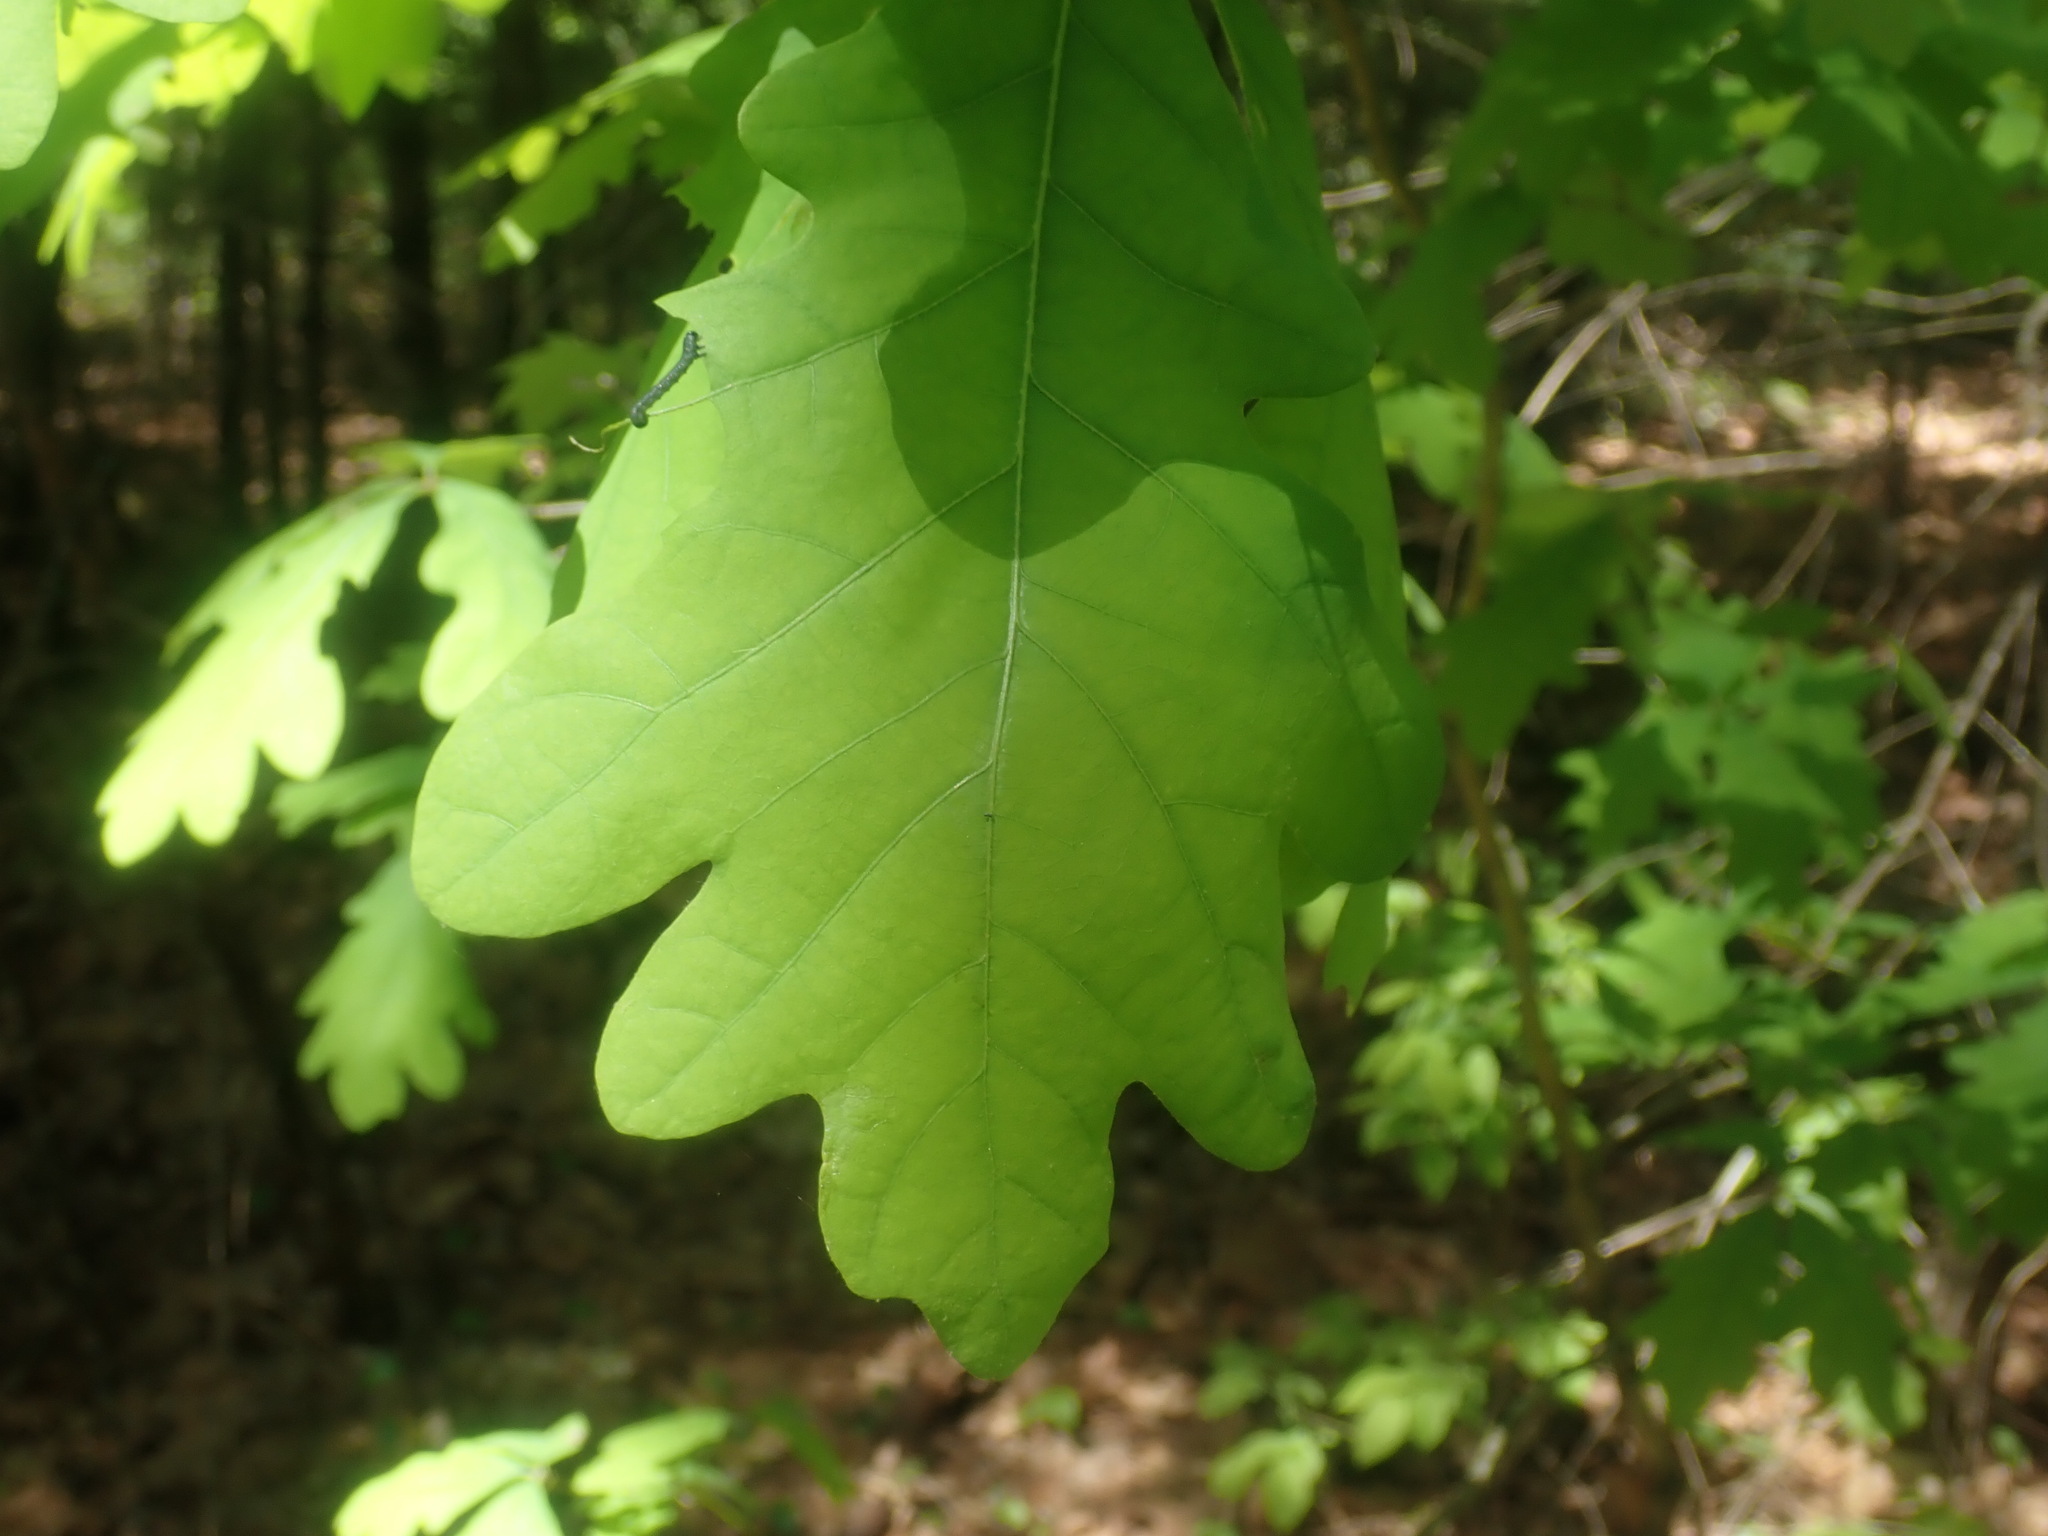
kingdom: Plantae
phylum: Tracheophyta
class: Magnoliopsida
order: Fagales
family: Fagaceae
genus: Quercus
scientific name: Quercus alba
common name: White oak
